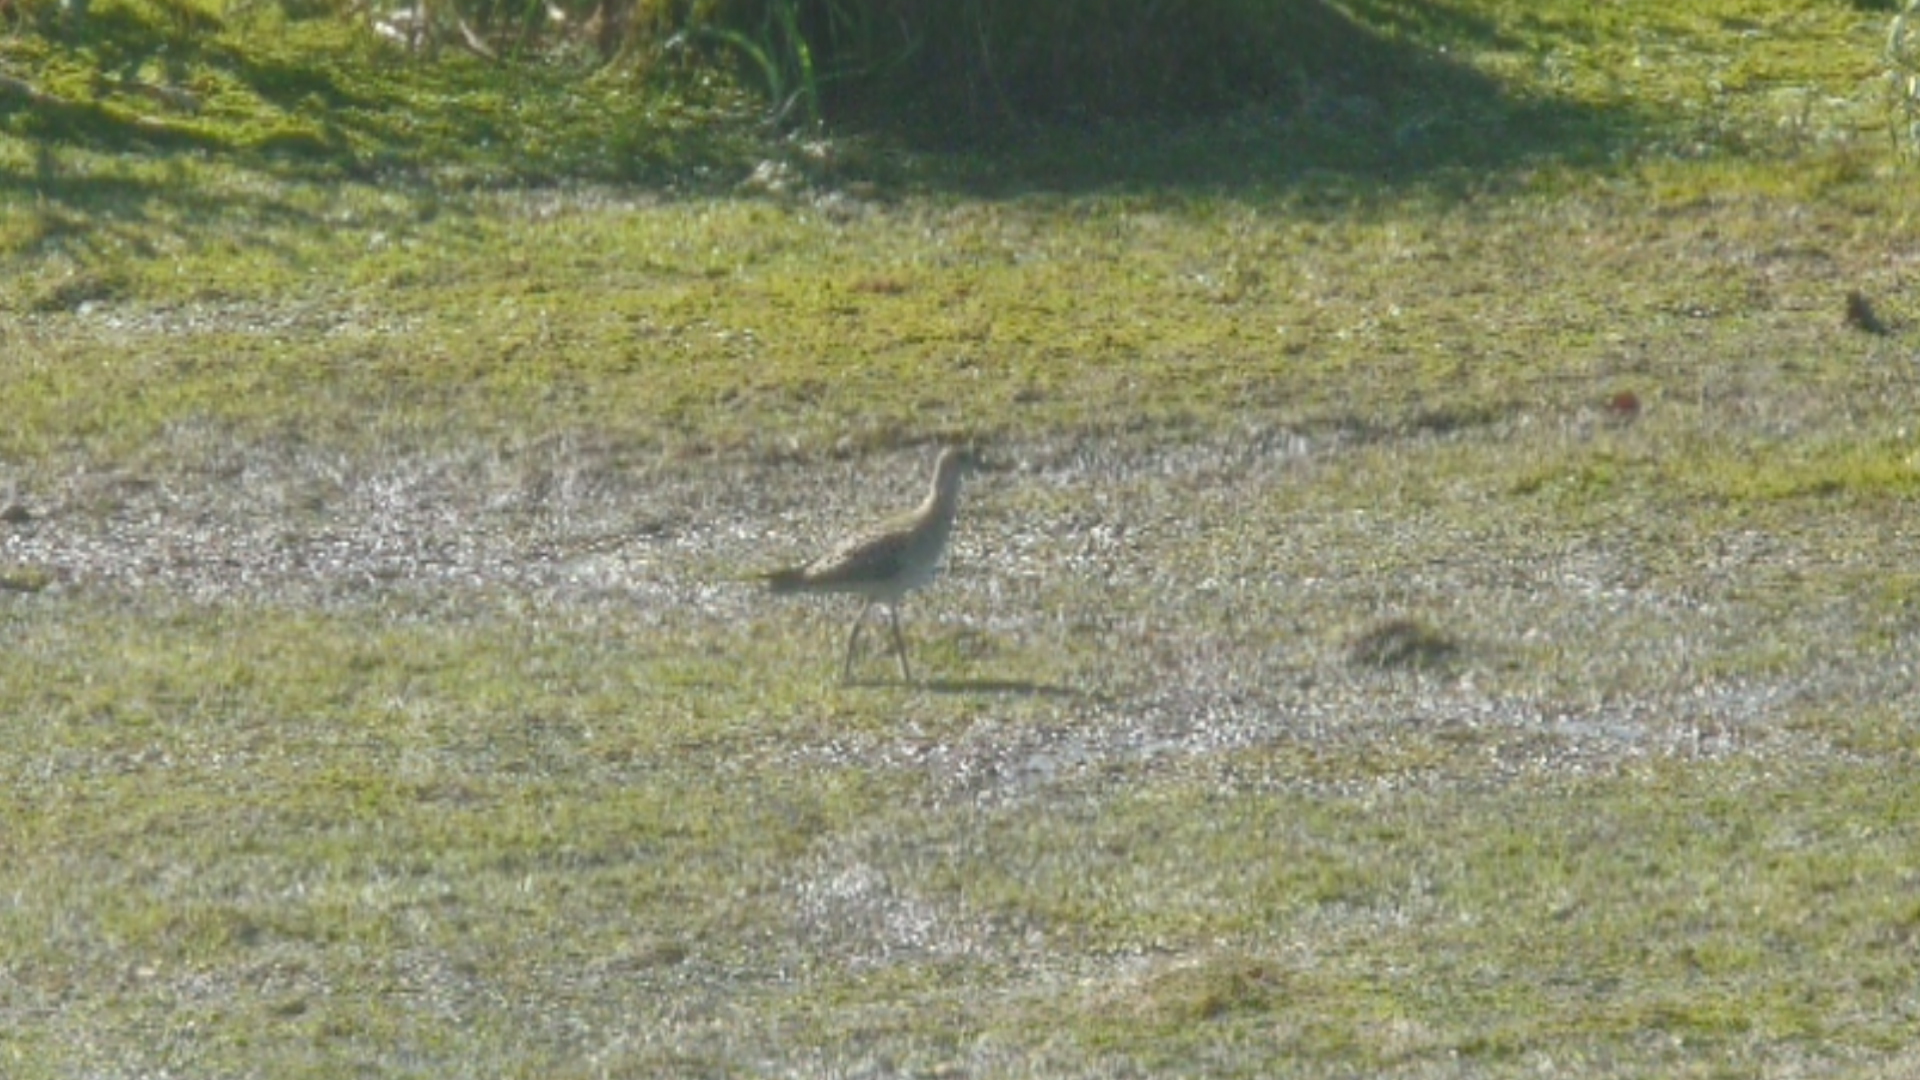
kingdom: Animalia
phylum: Chordata
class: Aves
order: Charadriiformes
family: Scolopacidae
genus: Calidris
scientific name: Calidris pugnax
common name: Ruff
